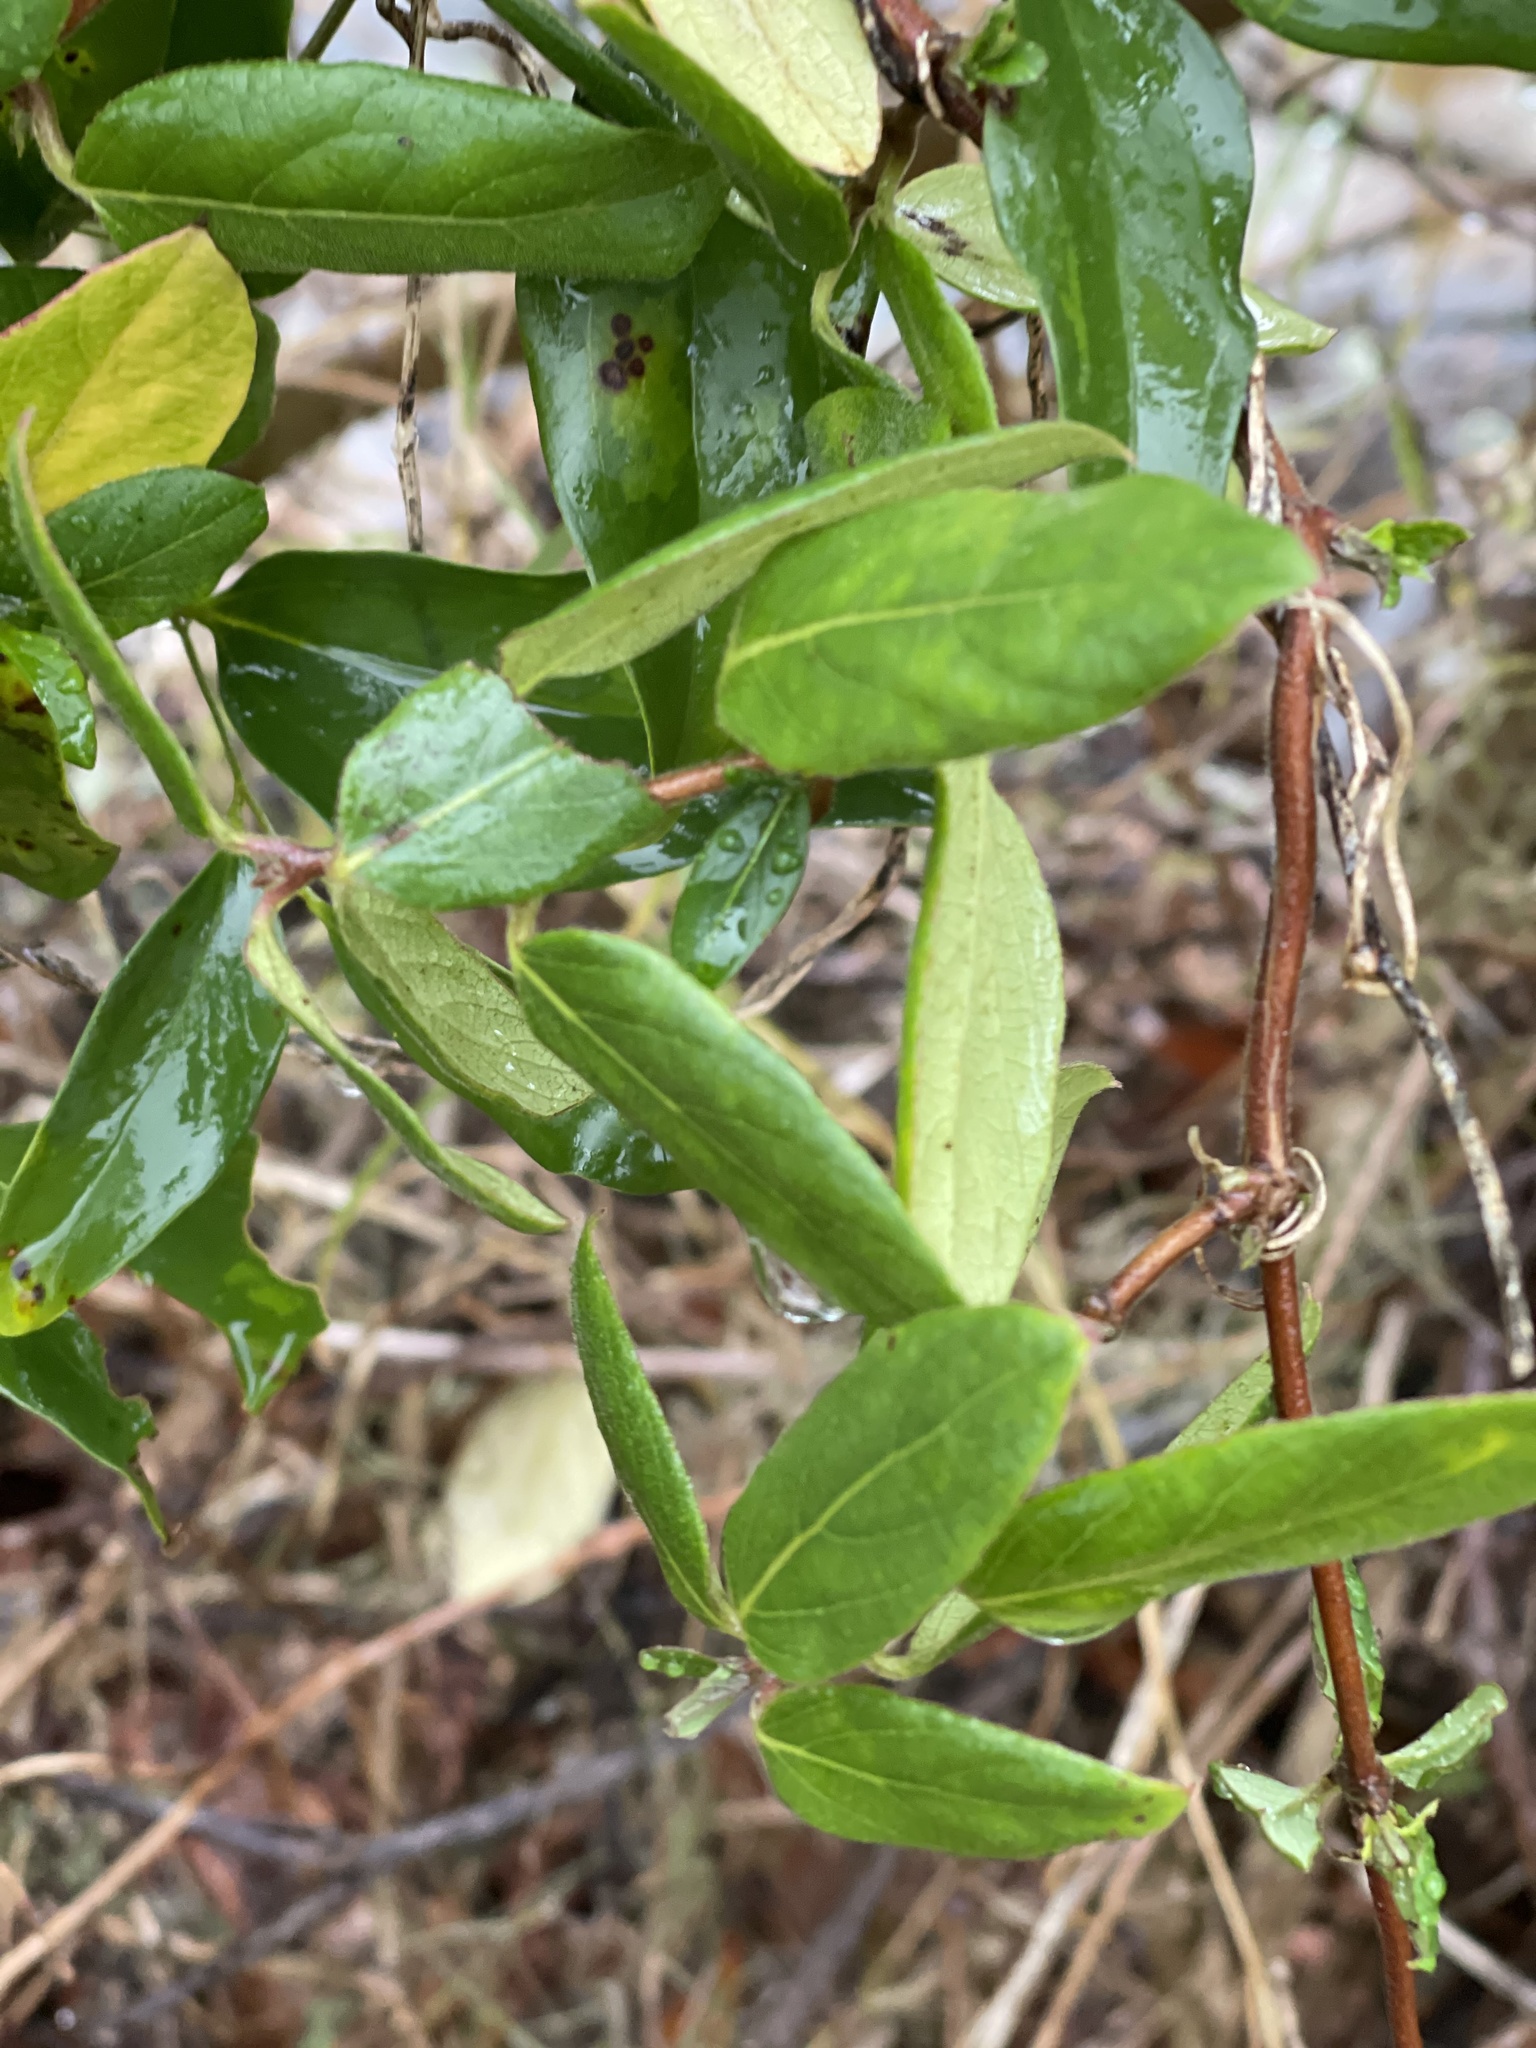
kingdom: Plantae
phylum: Tracheophyta
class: Magnoliopsida
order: Dipsacales
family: Caprifoliaceae
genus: Lonicera
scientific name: Lonicera japonica
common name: Japanese honeysuckle
